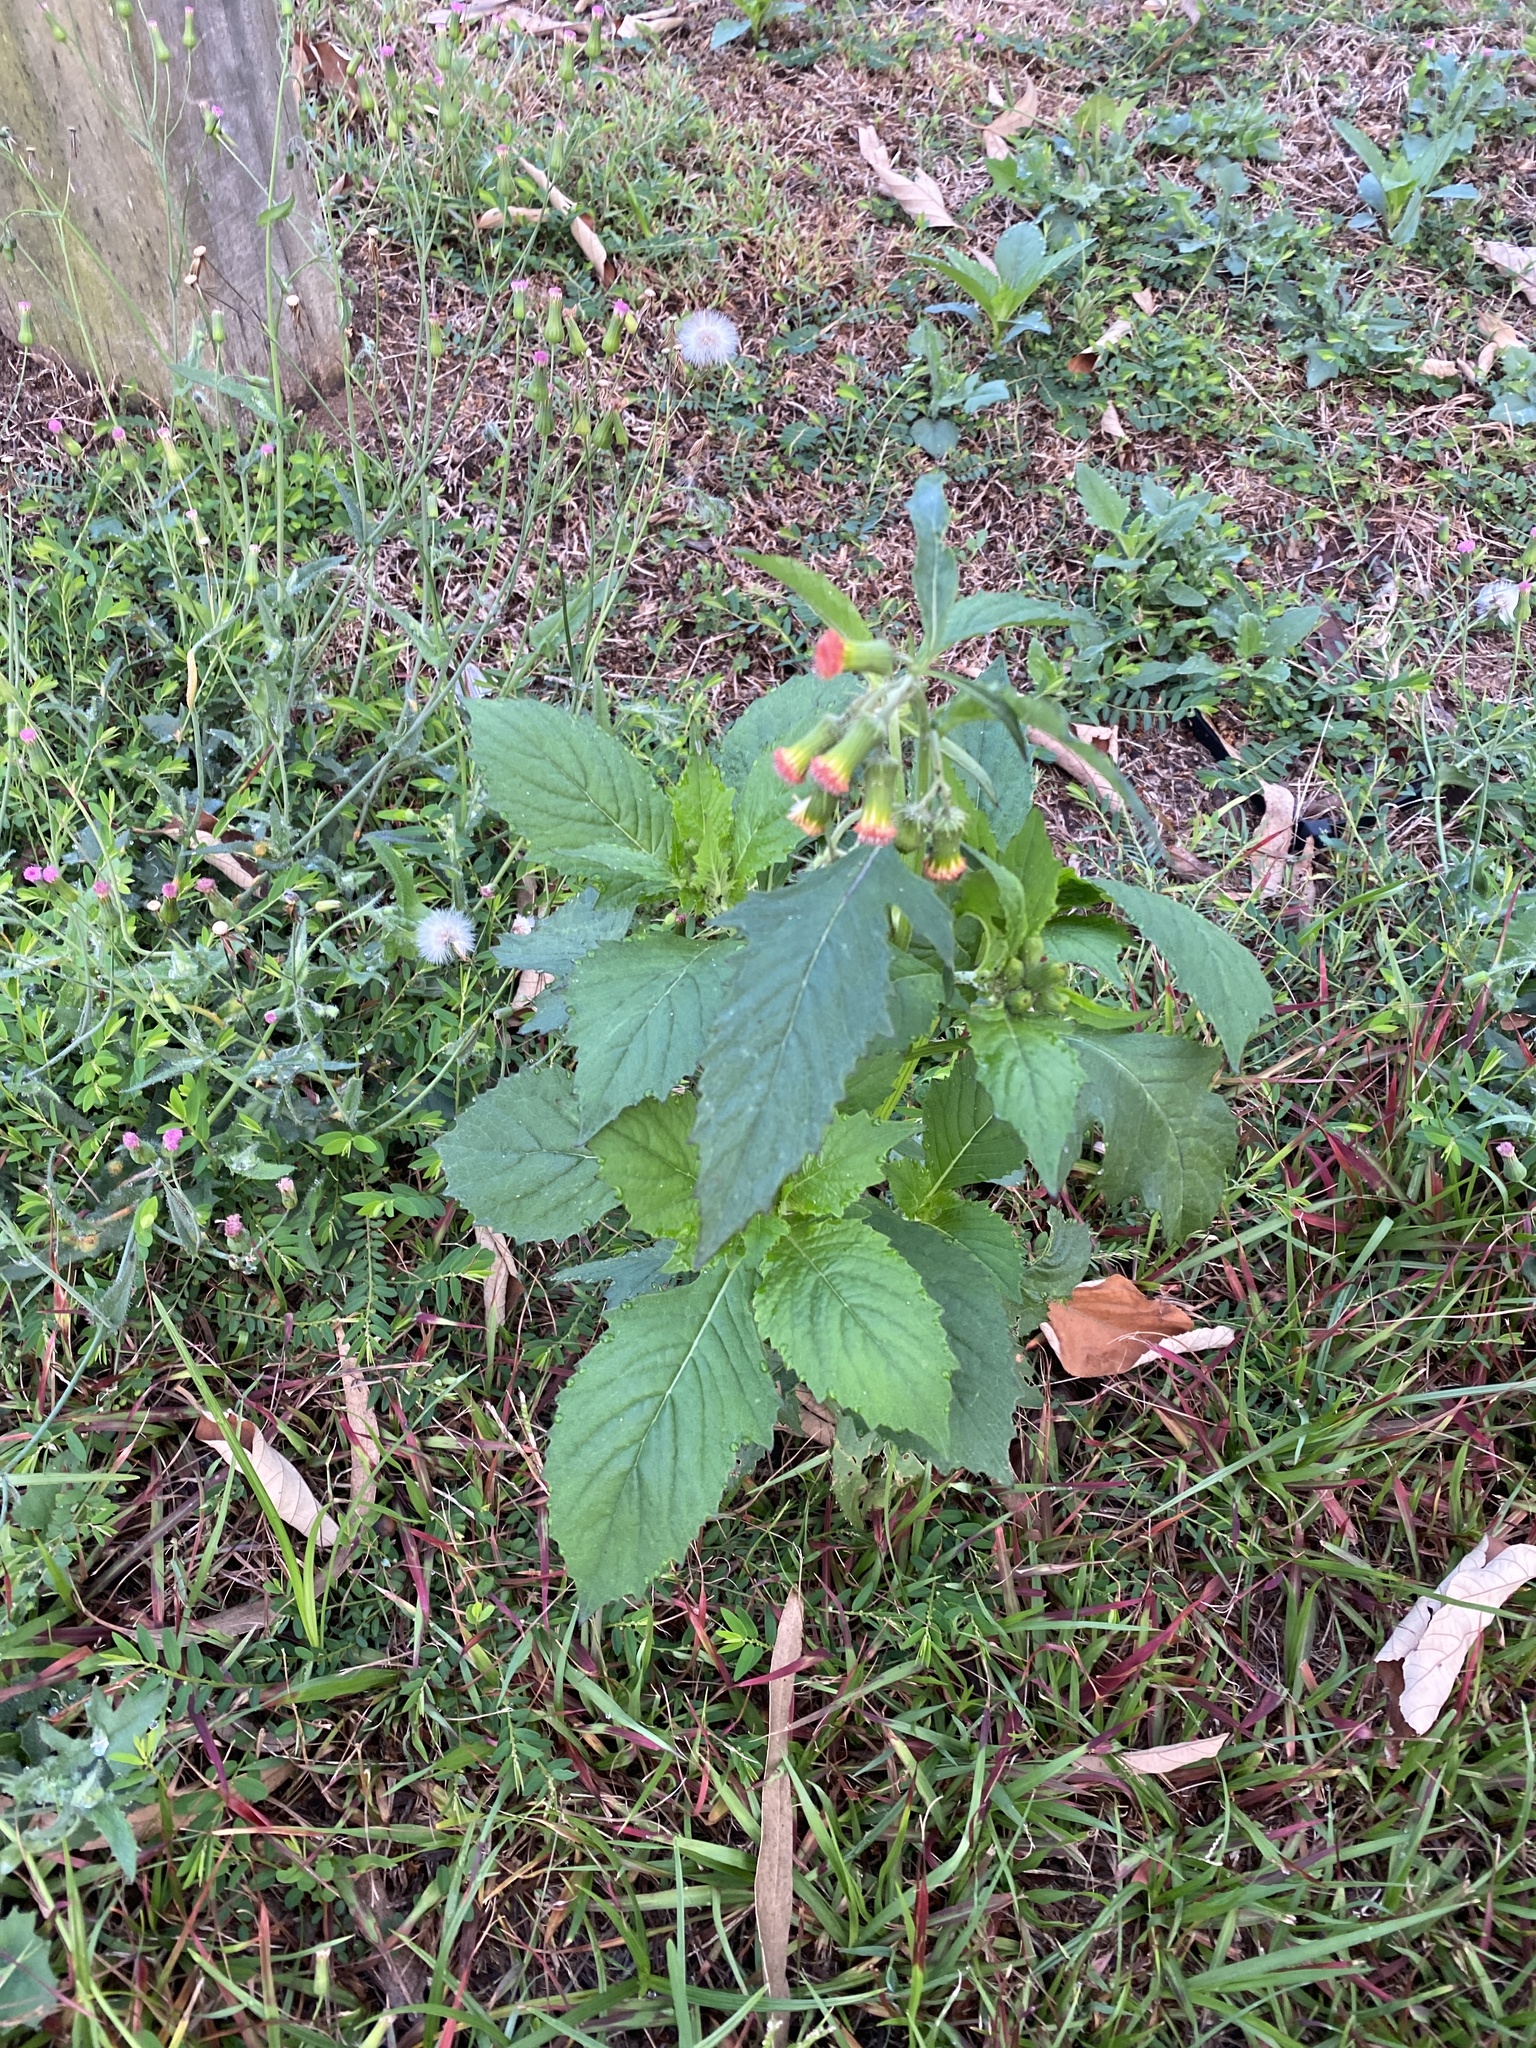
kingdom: Plantae
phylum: Tracheophyta
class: Magnoliopsida
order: Asterales
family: Asteraceae
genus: Crassocephalum
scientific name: Crassocephalum crepidioides
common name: Redflower ragleaf
